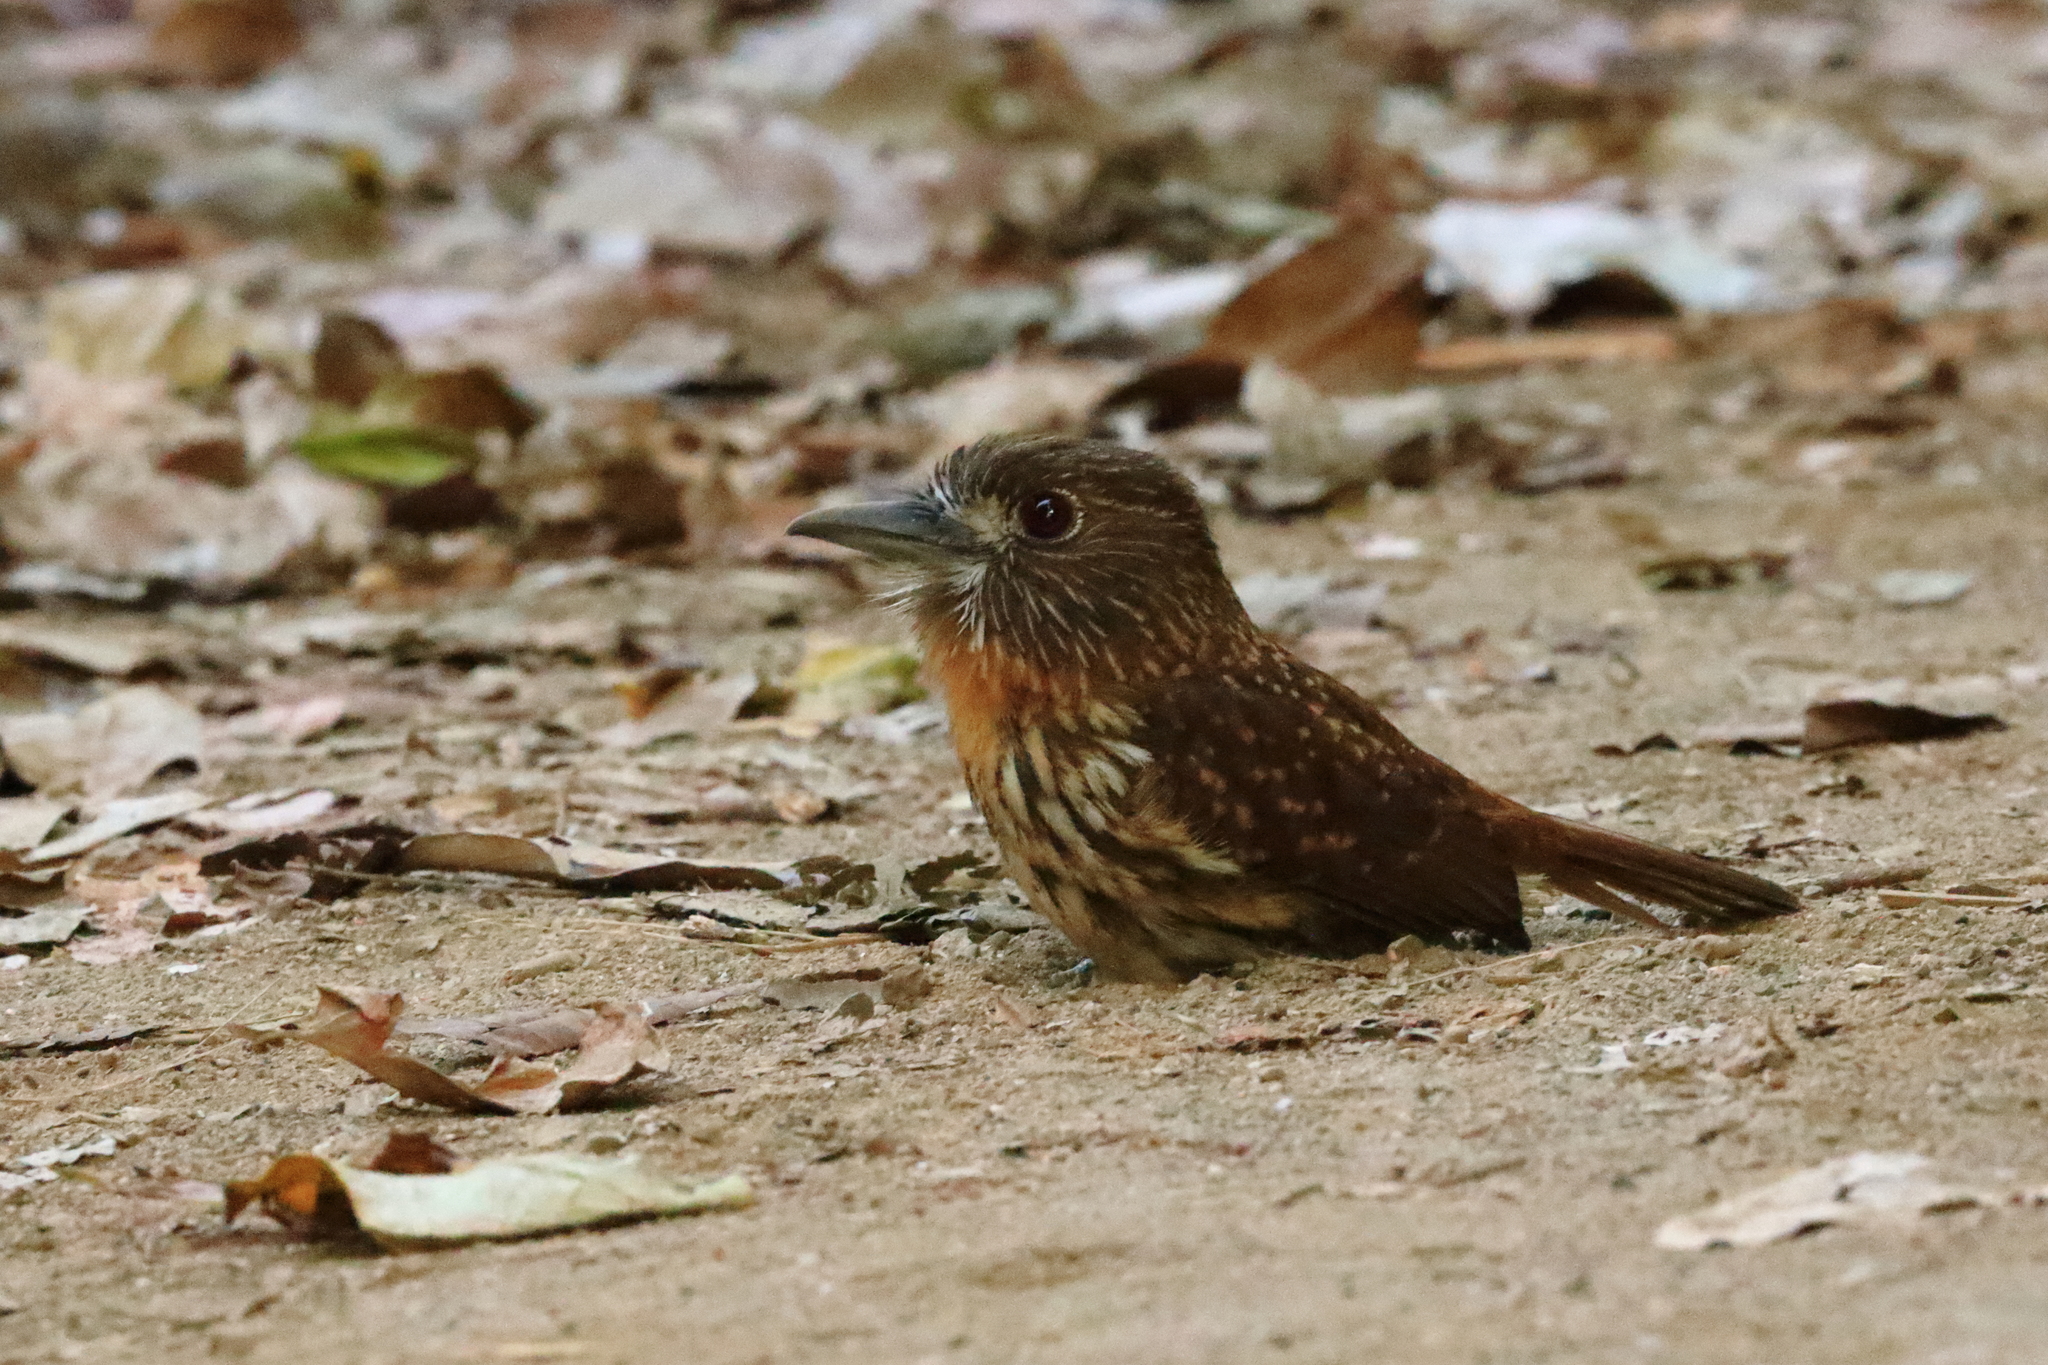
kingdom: Animalia
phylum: Chordata
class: Aves
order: Piciformes
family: Bucconidae
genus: Malacoptila
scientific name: Malacoptila panamensis
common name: White-whiskered puffbird
